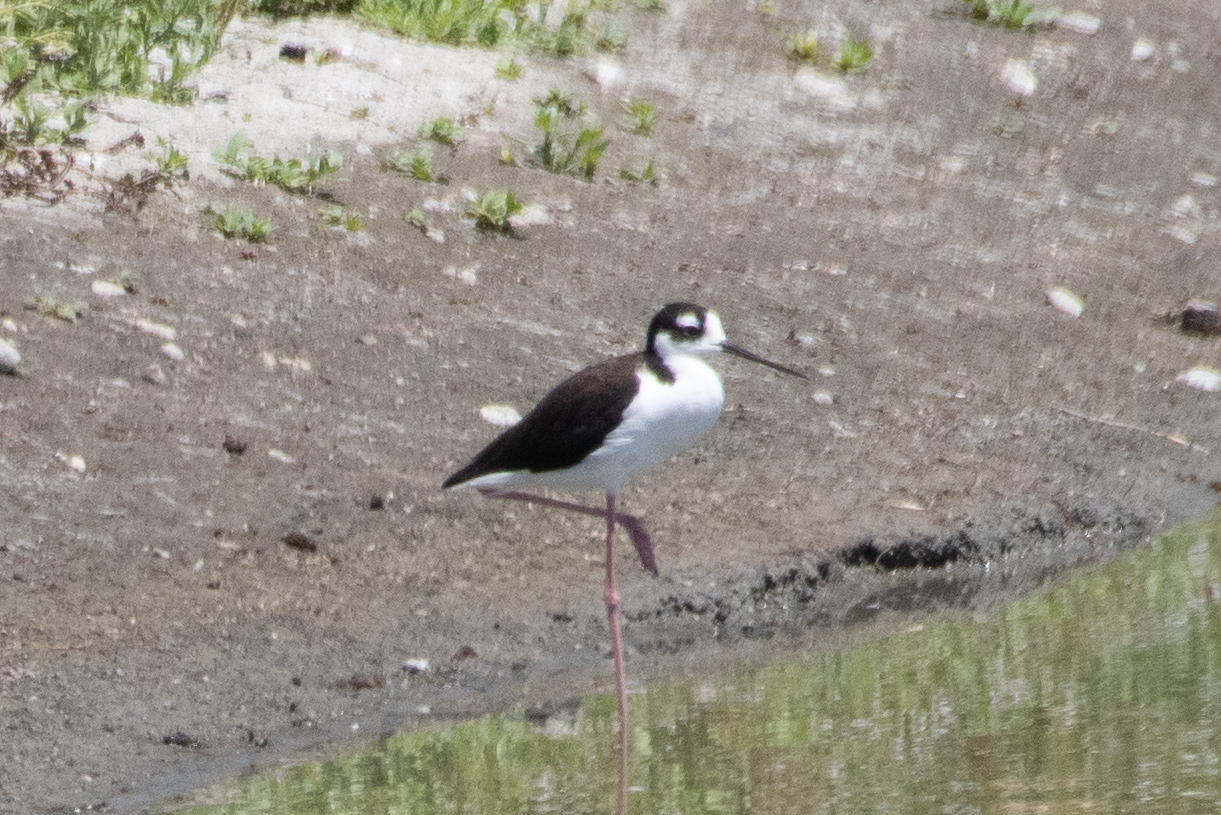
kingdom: Animalia
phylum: Chordata
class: Aves
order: Charadriiformes
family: Recurvirostridae
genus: Himantopus
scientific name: Himantopus mexicanus
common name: Black-necked stilt
